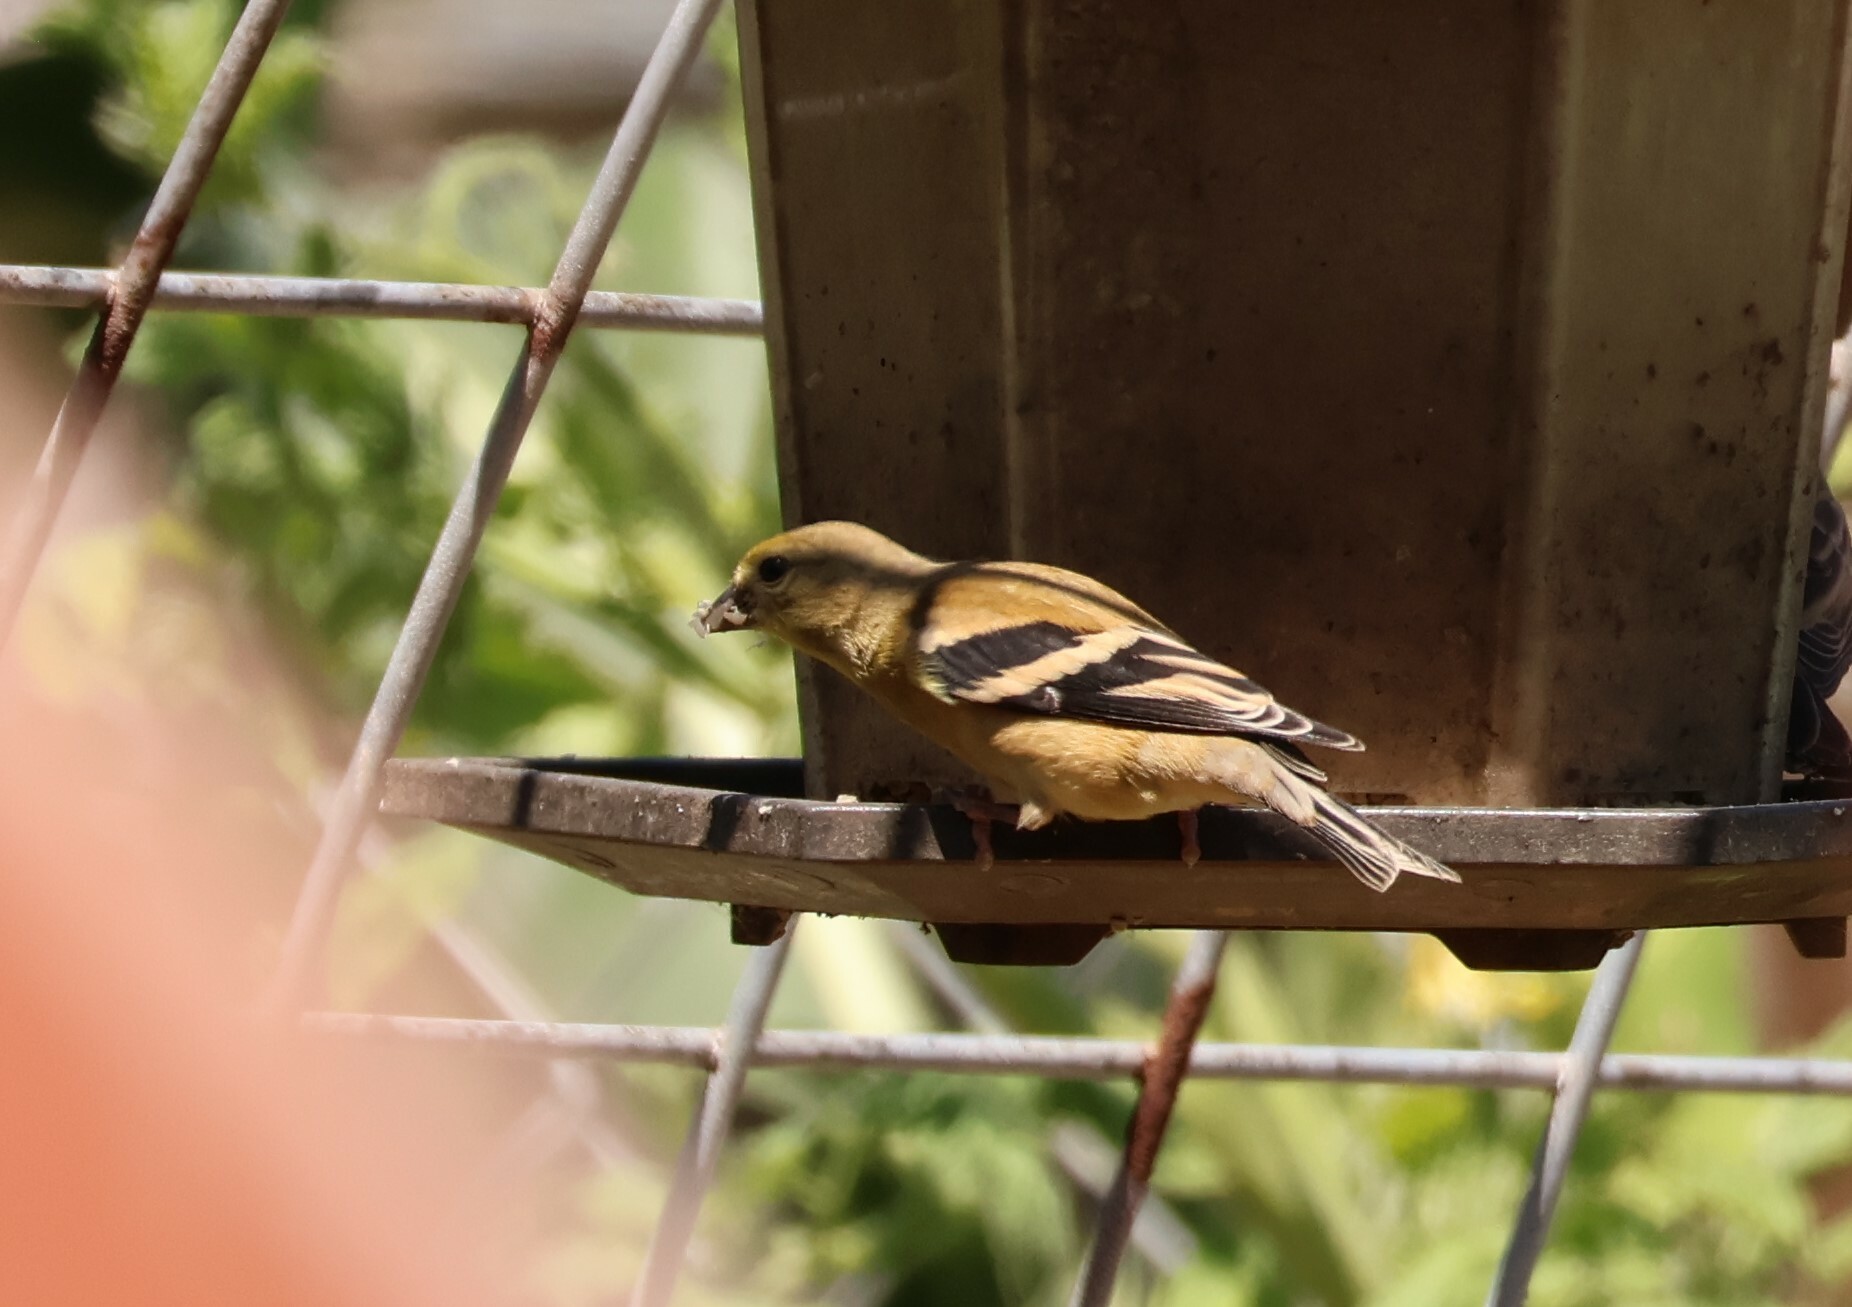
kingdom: Animalia
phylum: Chordata
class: Aves
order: Passeriformes
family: Fringillidae
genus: Spinus
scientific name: Spinus tristis
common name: American goldfinch
